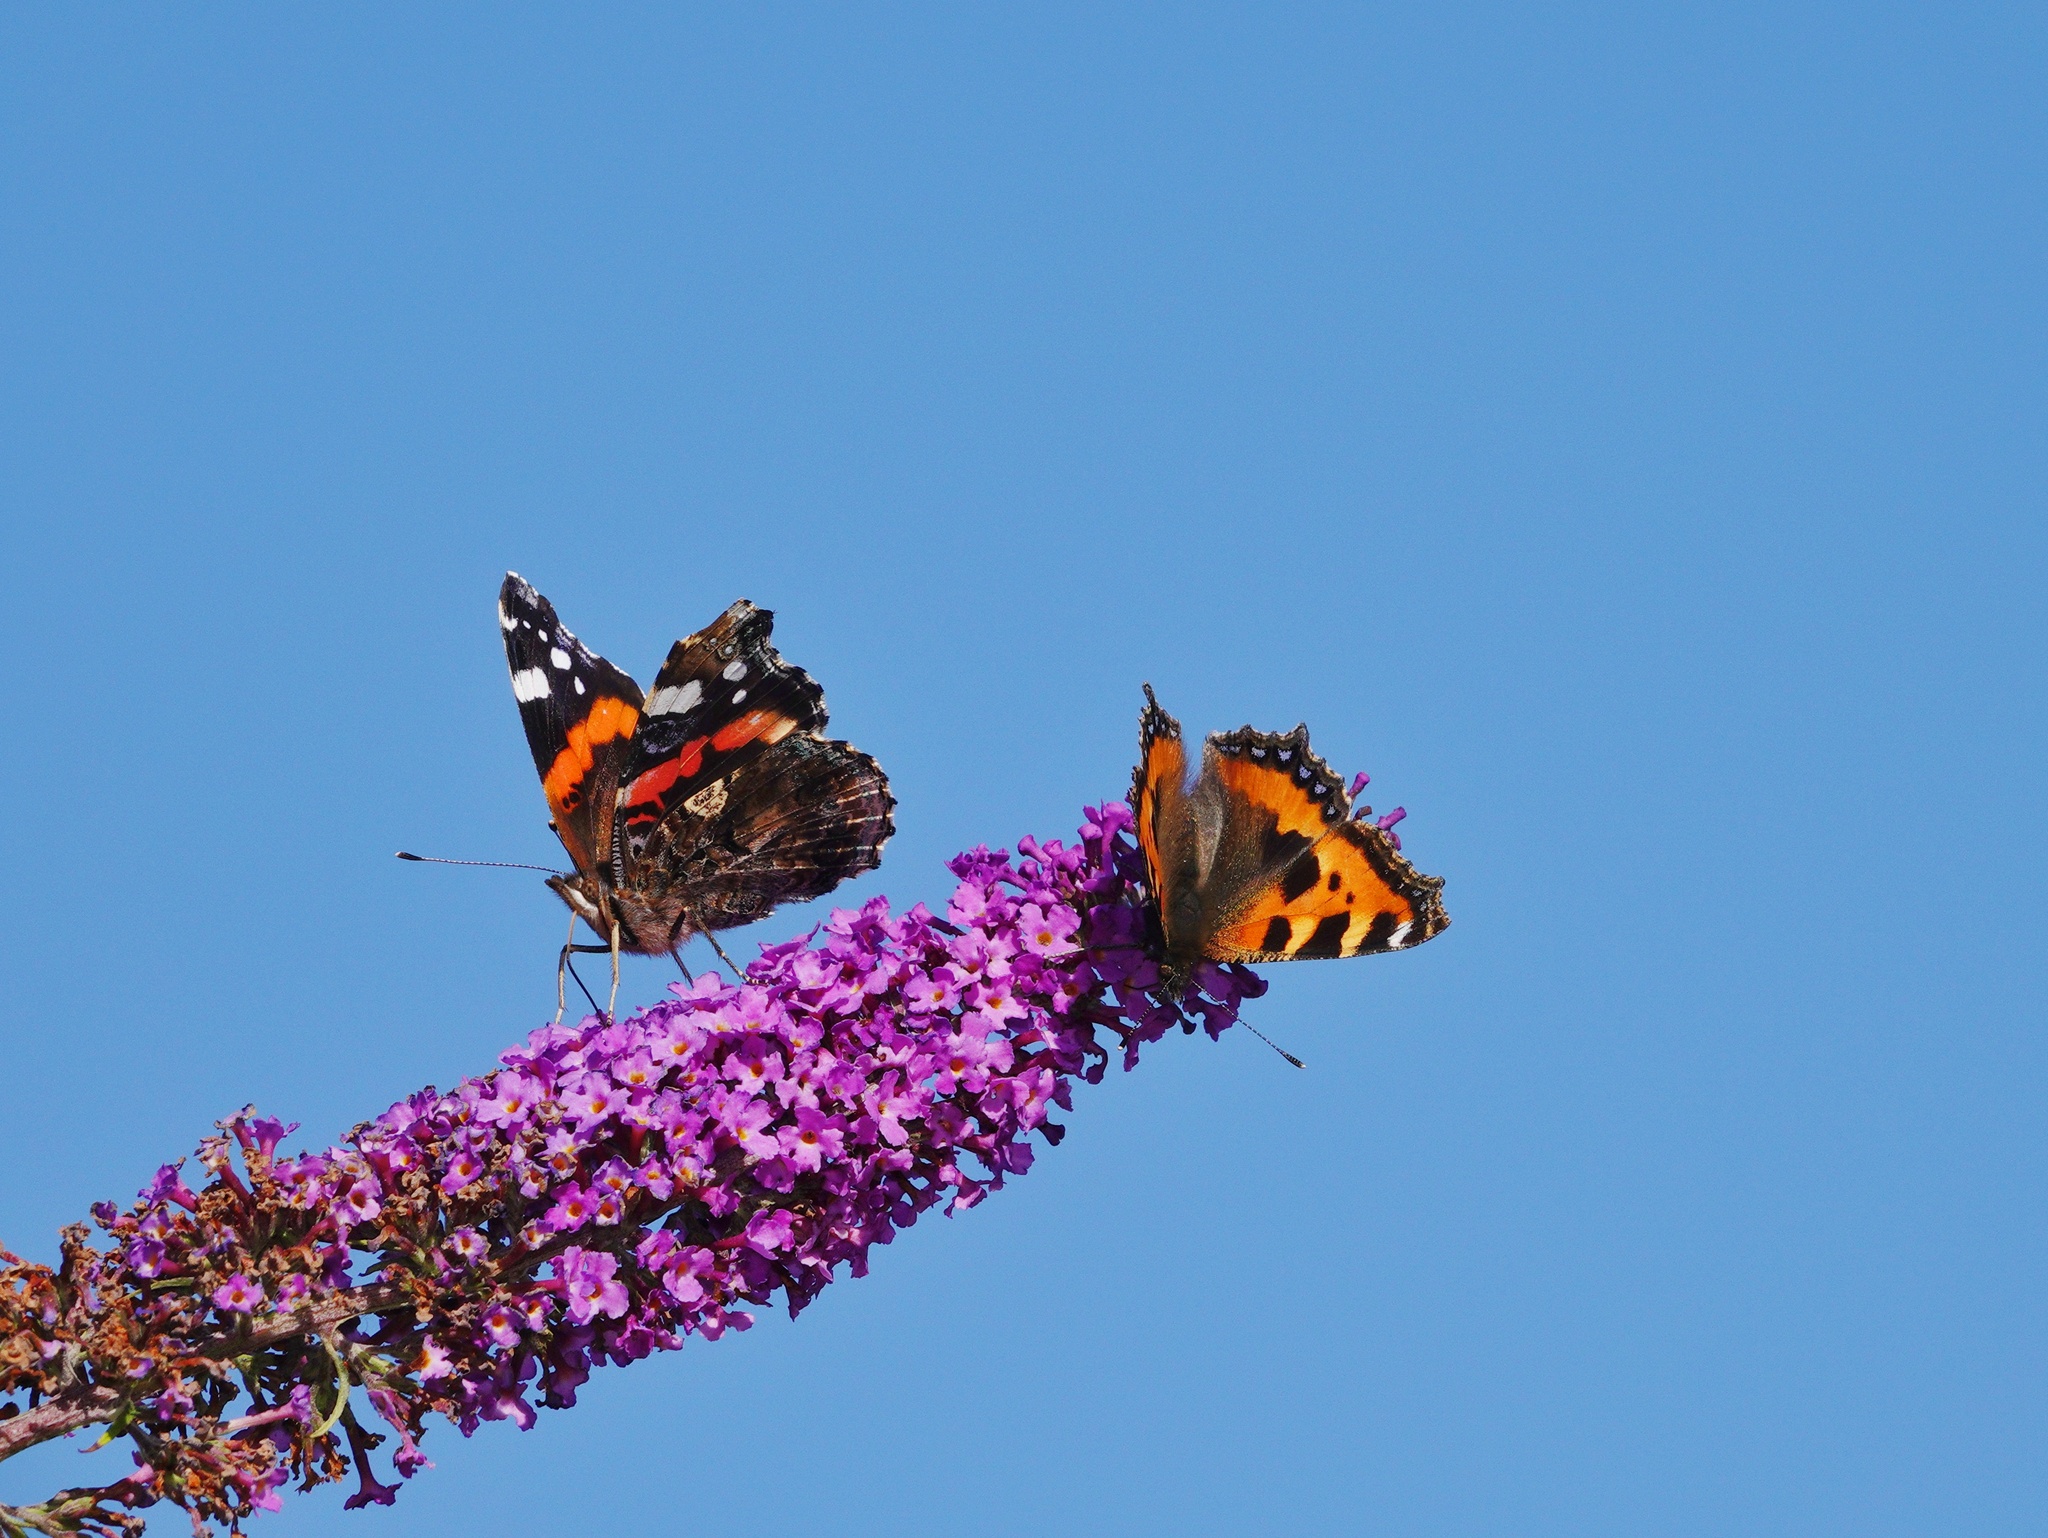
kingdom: Animalia
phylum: Arthropoda
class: Insecta
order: Lepidoptera
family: Nymphalidae
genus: Vanessa
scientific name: Vanessa atalanta
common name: Red admiral
